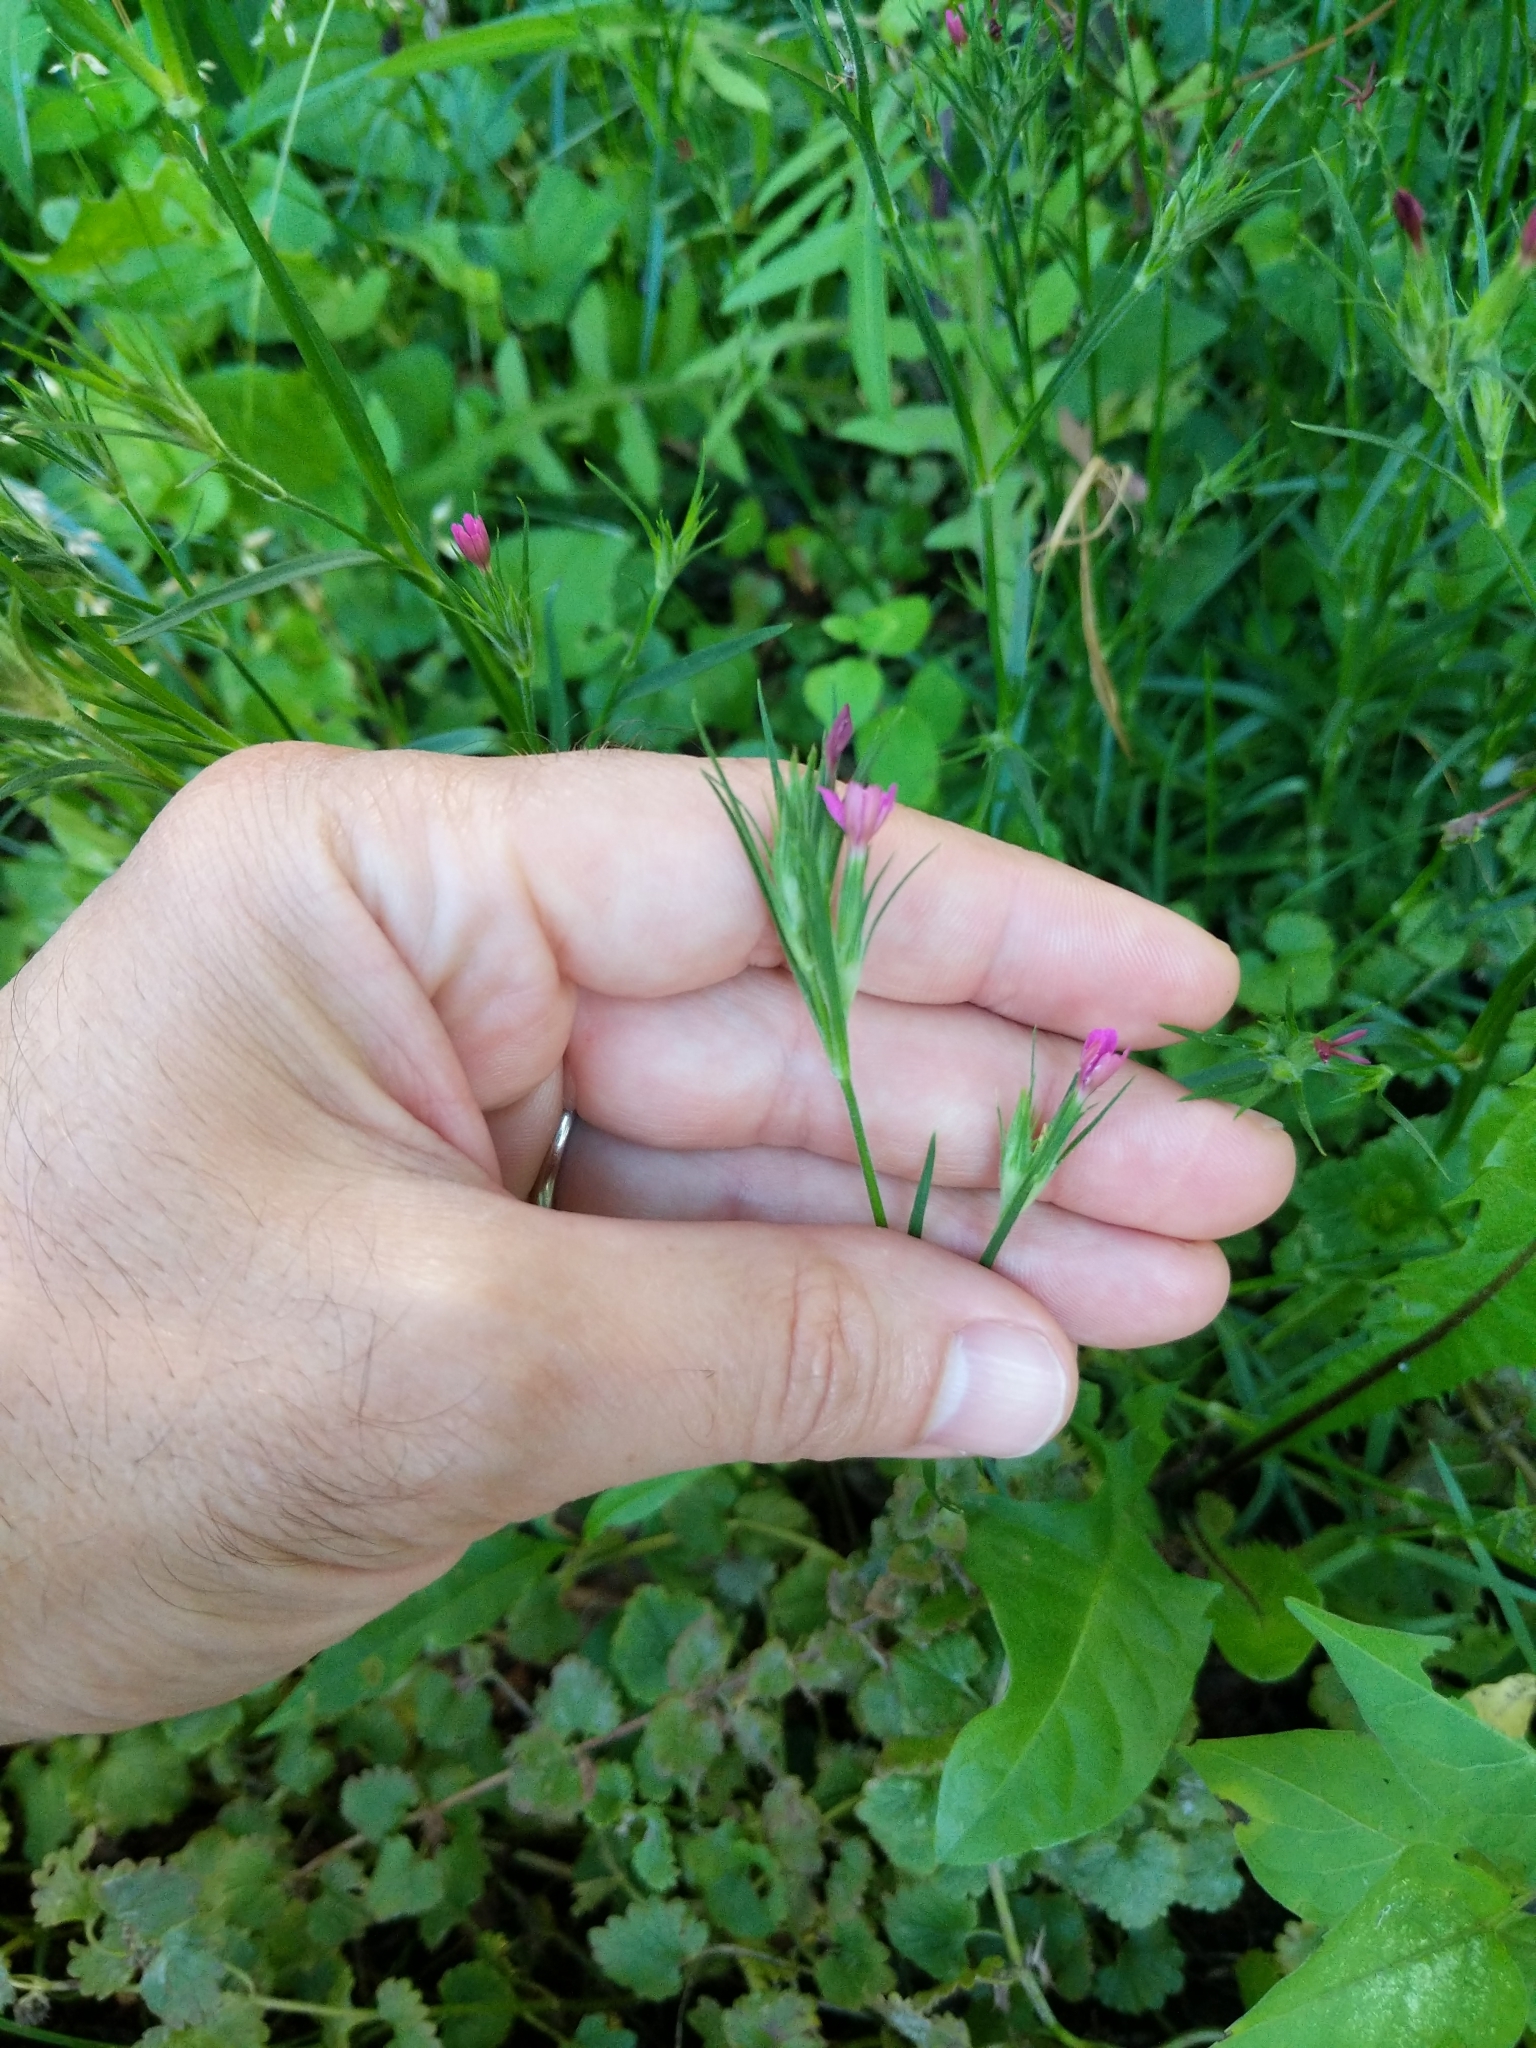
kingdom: Plantae
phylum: Tracheophyta
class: Magnoliopsida
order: Caryophyllales
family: Caryophyllaceae
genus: Dianthus
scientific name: Dianthus armeria
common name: Deptford pink
